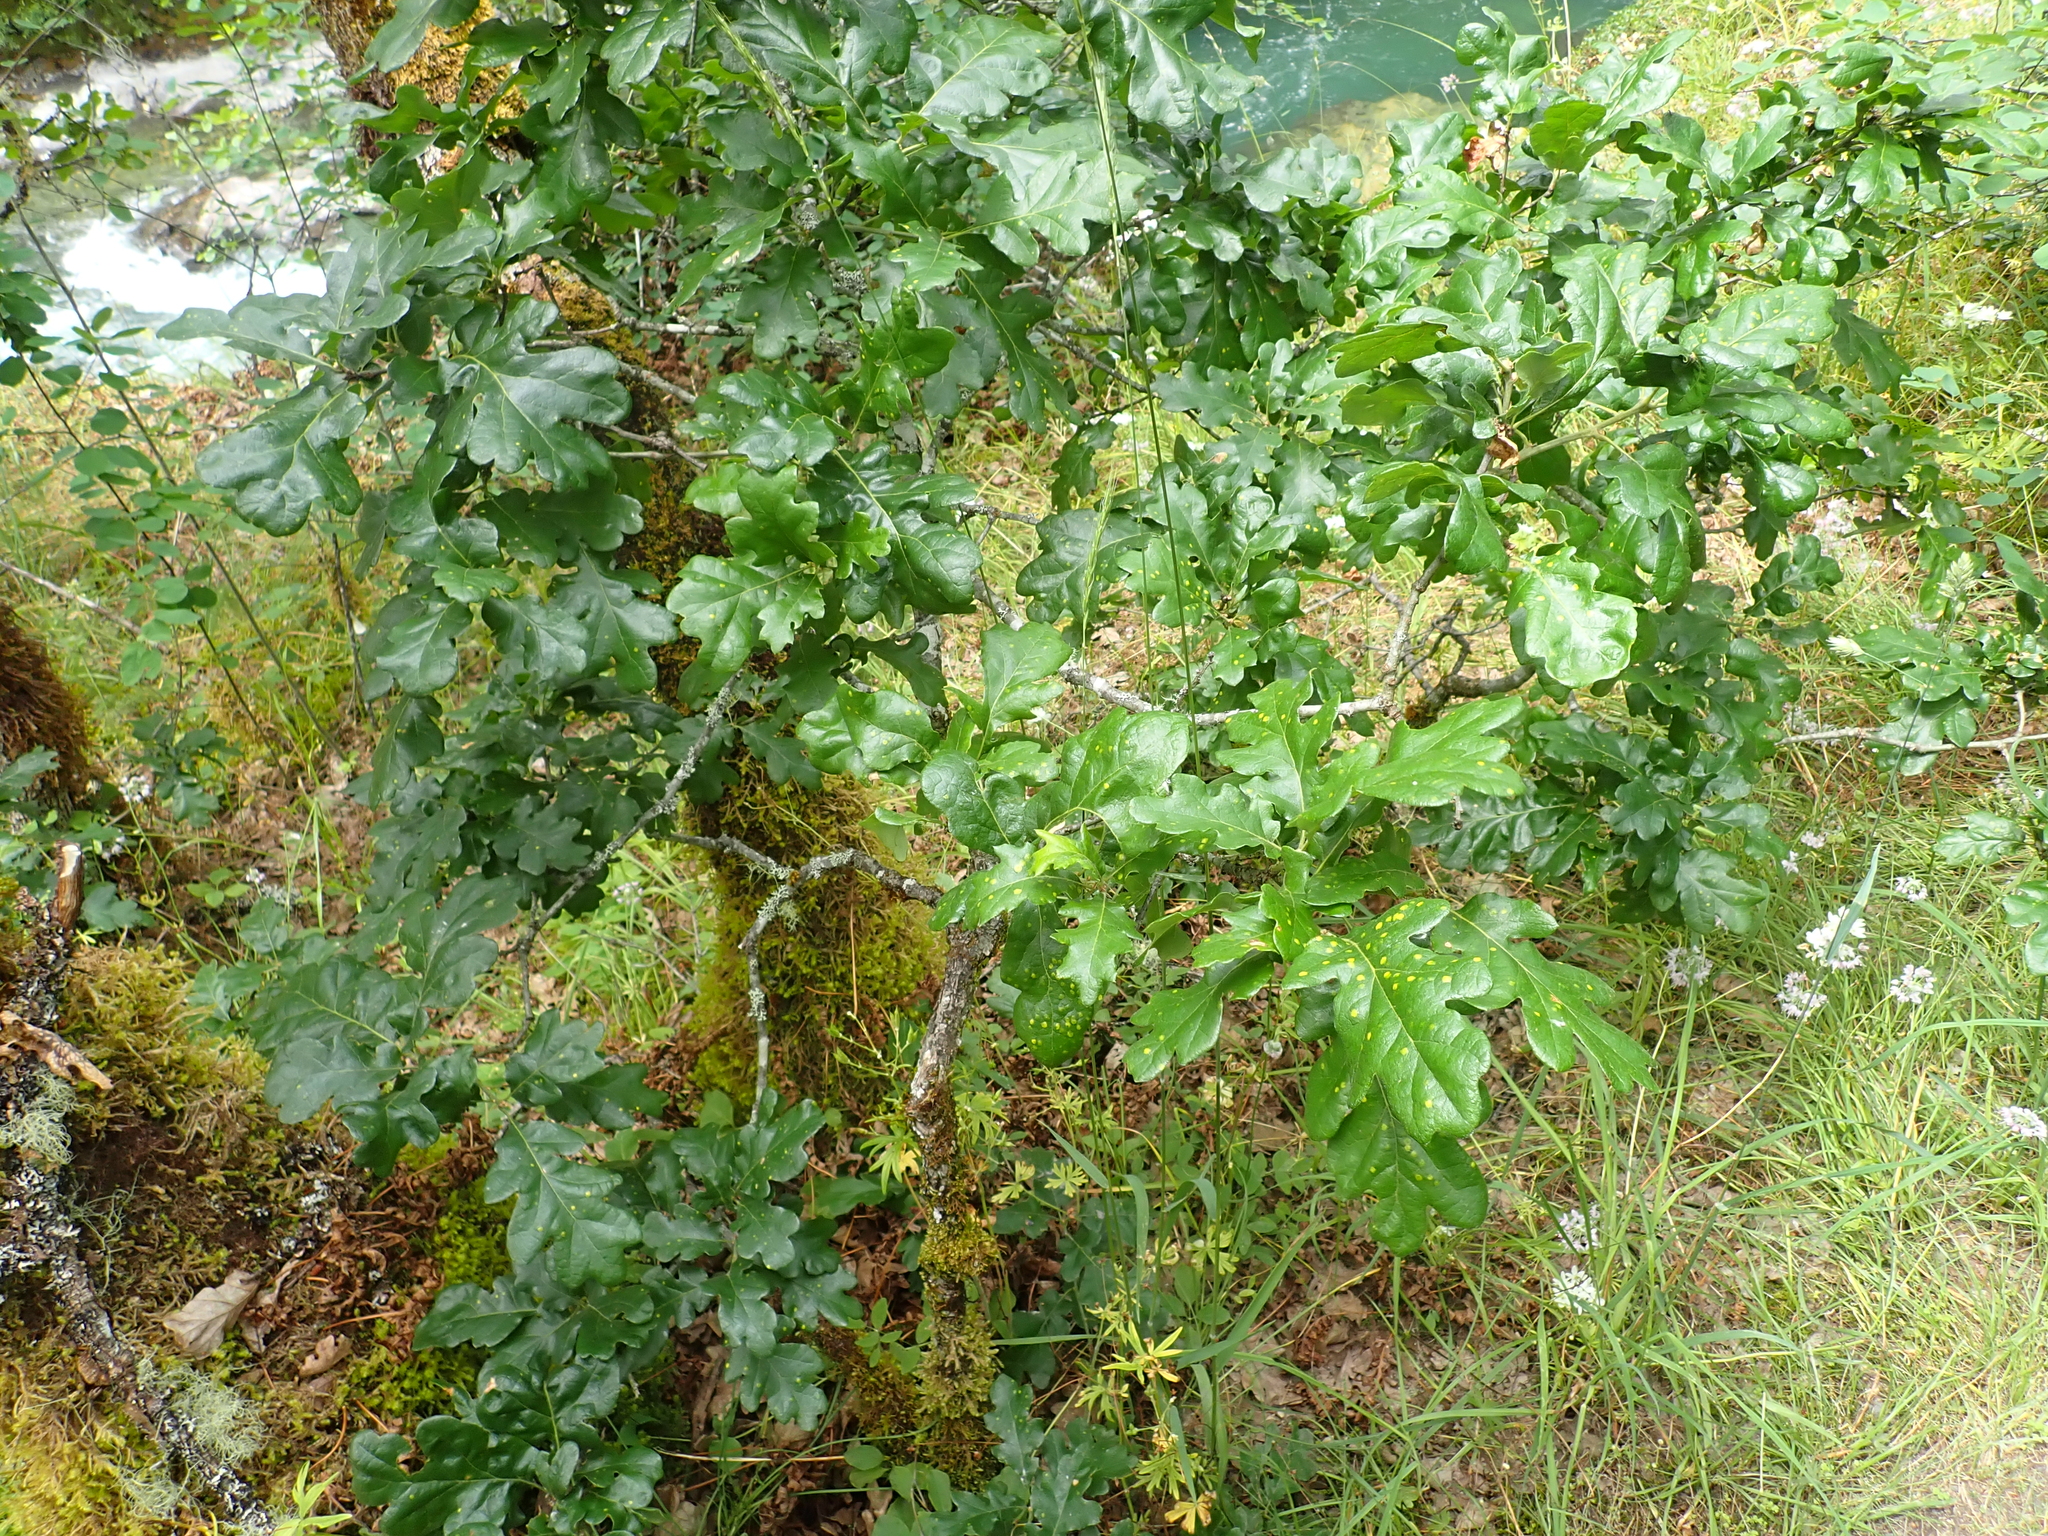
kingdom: Animalia
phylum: Arthropoda
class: Insecta
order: Hymenoptera
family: Cynipidae
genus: Neuroterus
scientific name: Neuroterus saltarius
